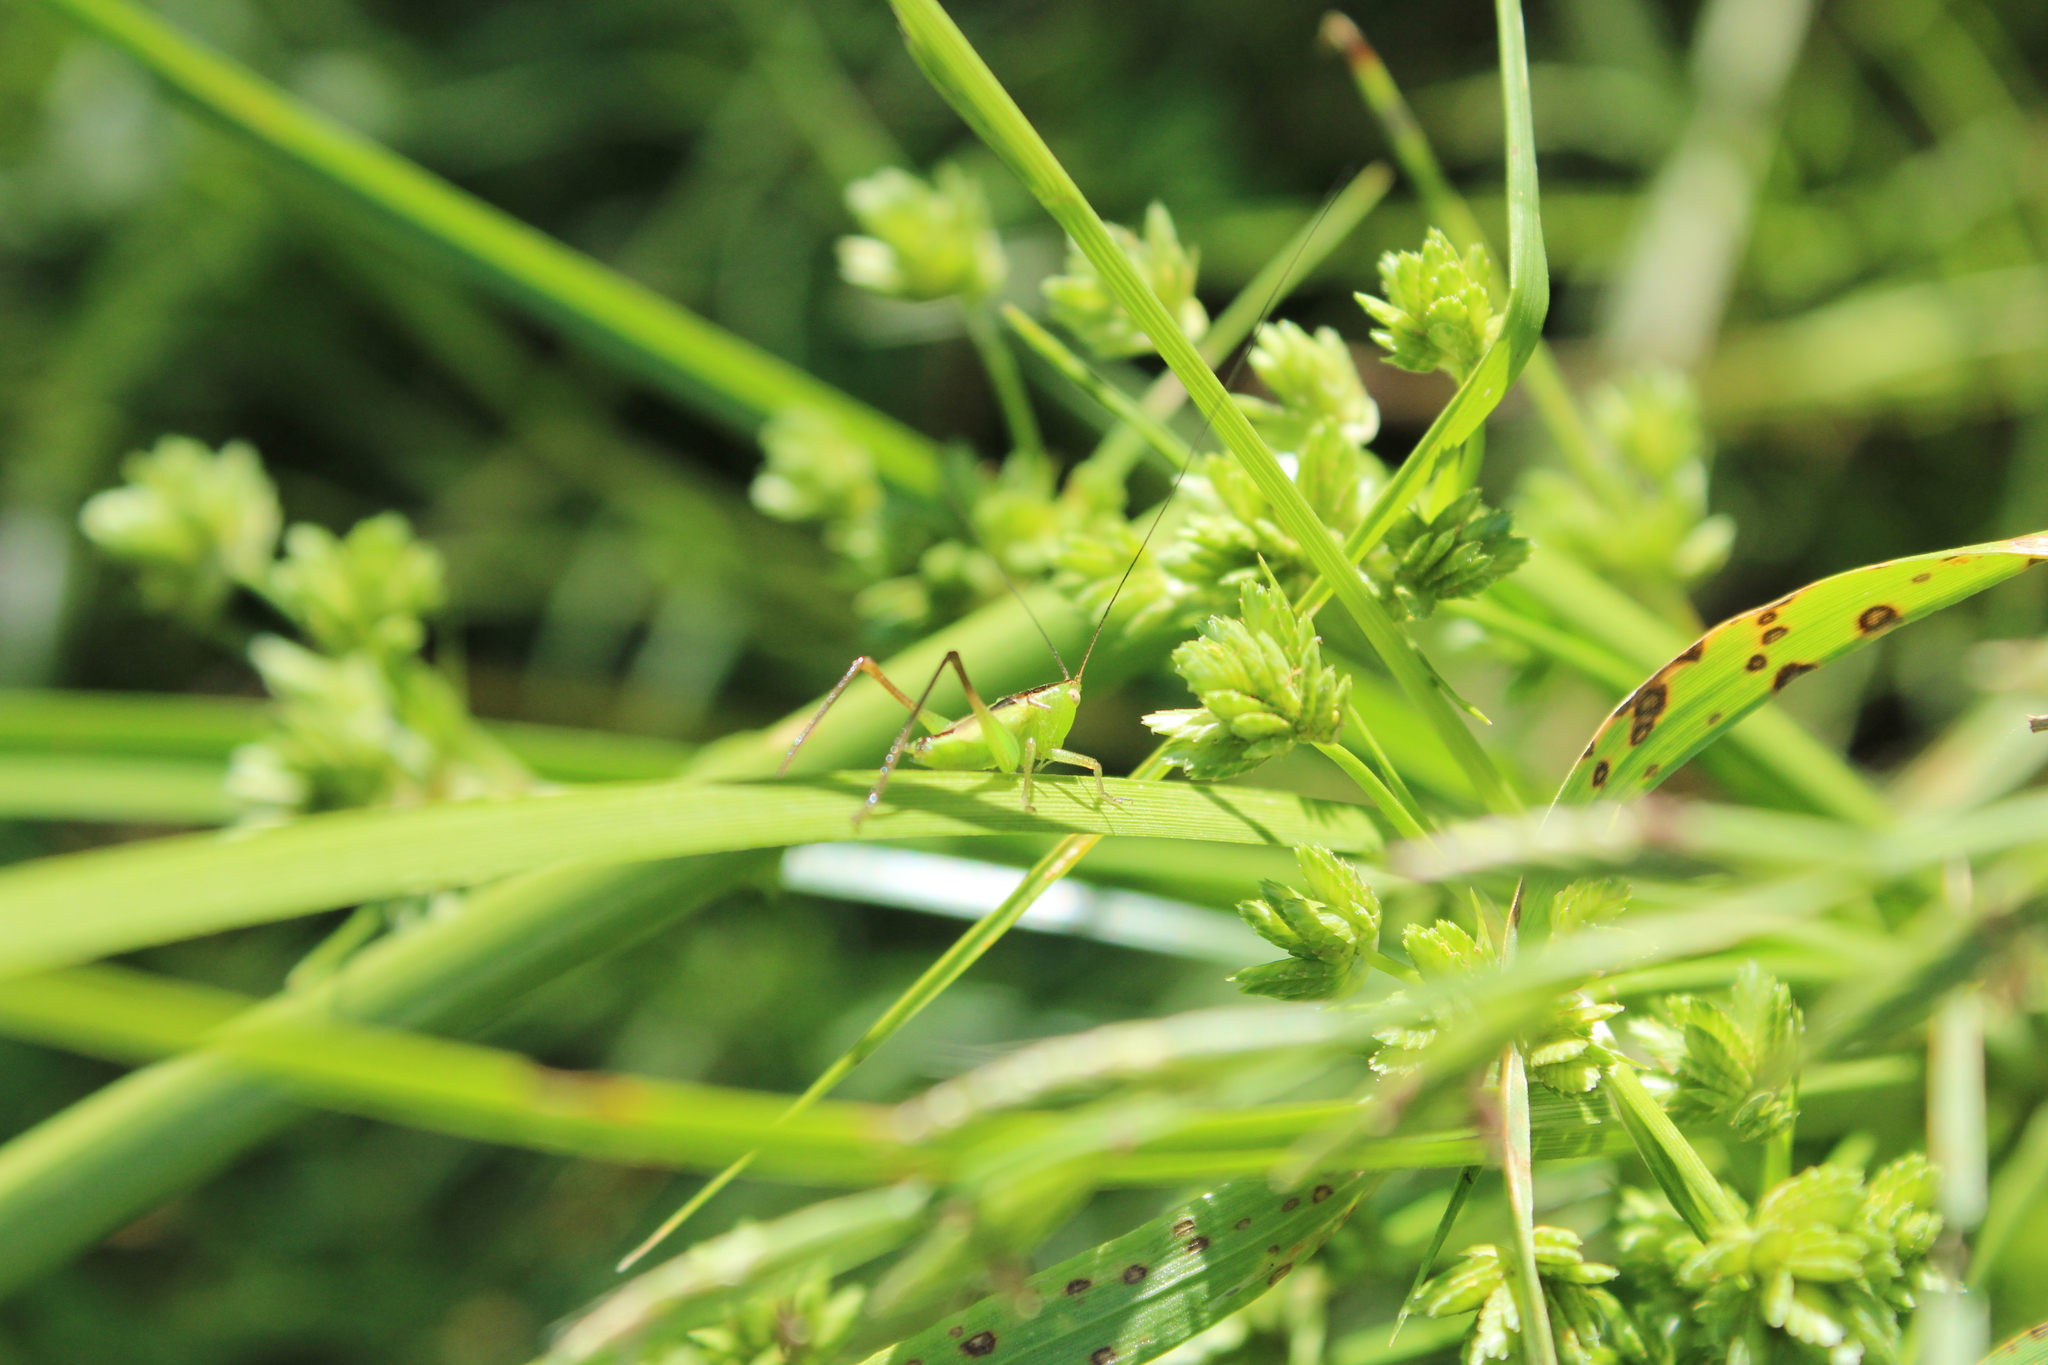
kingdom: Animalia
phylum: Arthropoda
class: Insecta
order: Orthoptera
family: Tettigoniidae
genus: Conocephalus
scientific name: Conocephalus longipes
